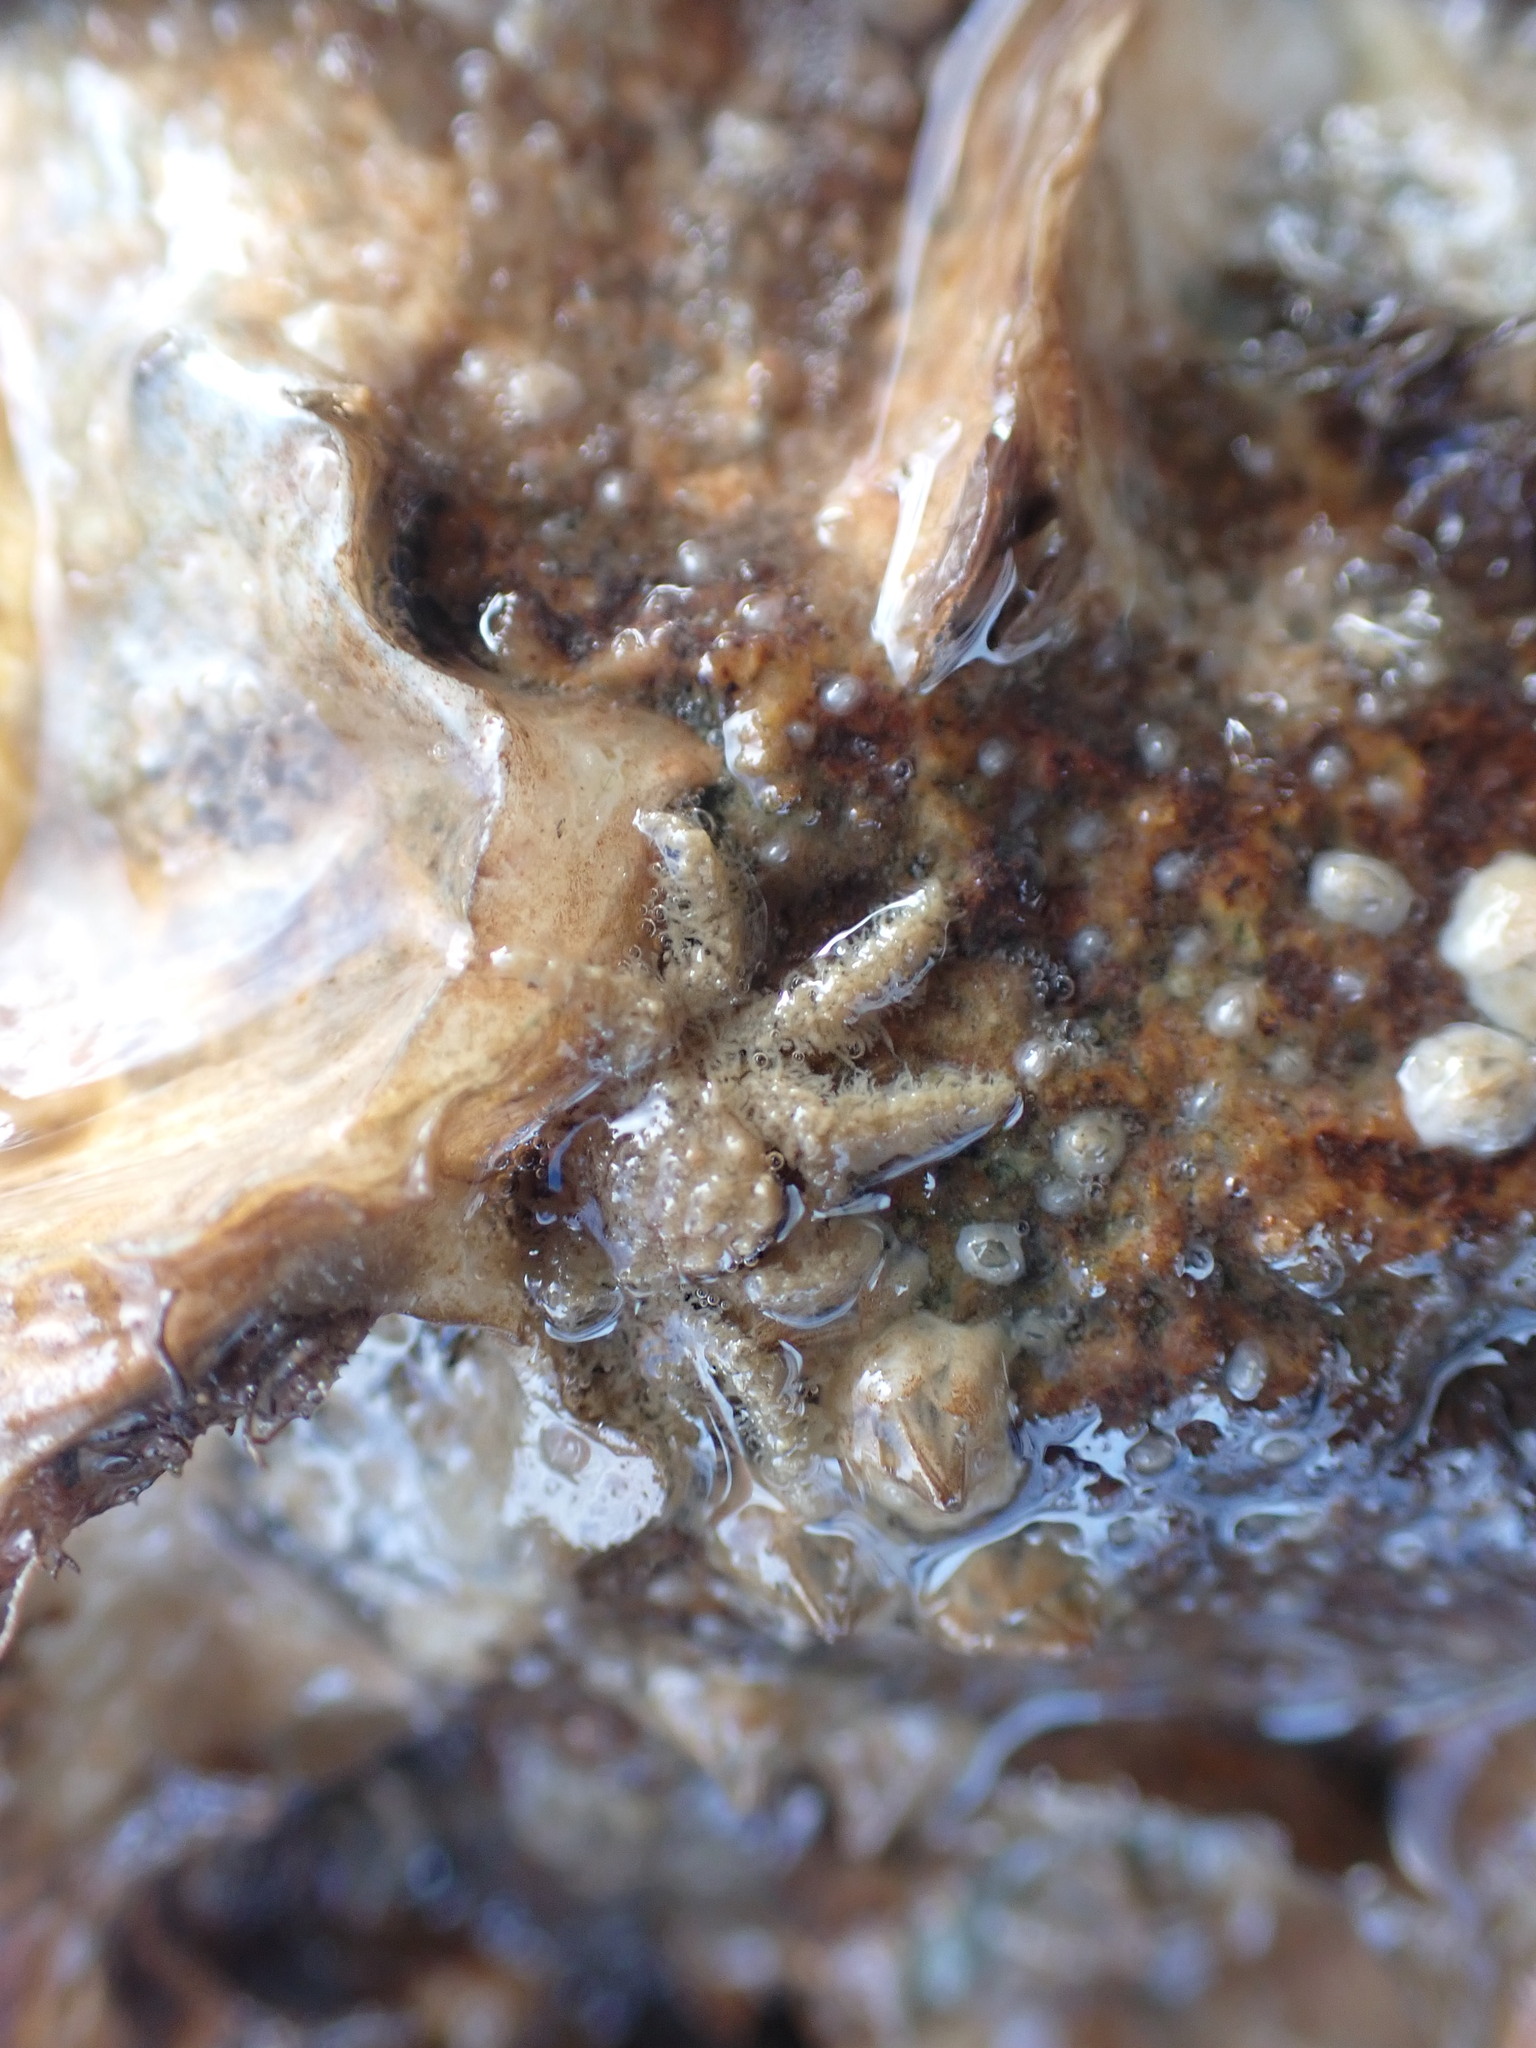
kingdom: Animalia
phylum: Arthropoda
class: Malacostraca
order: Decapoda
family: Hymenosomatidae
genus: Neohymenicus
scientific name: Neohymenicus pubescens
